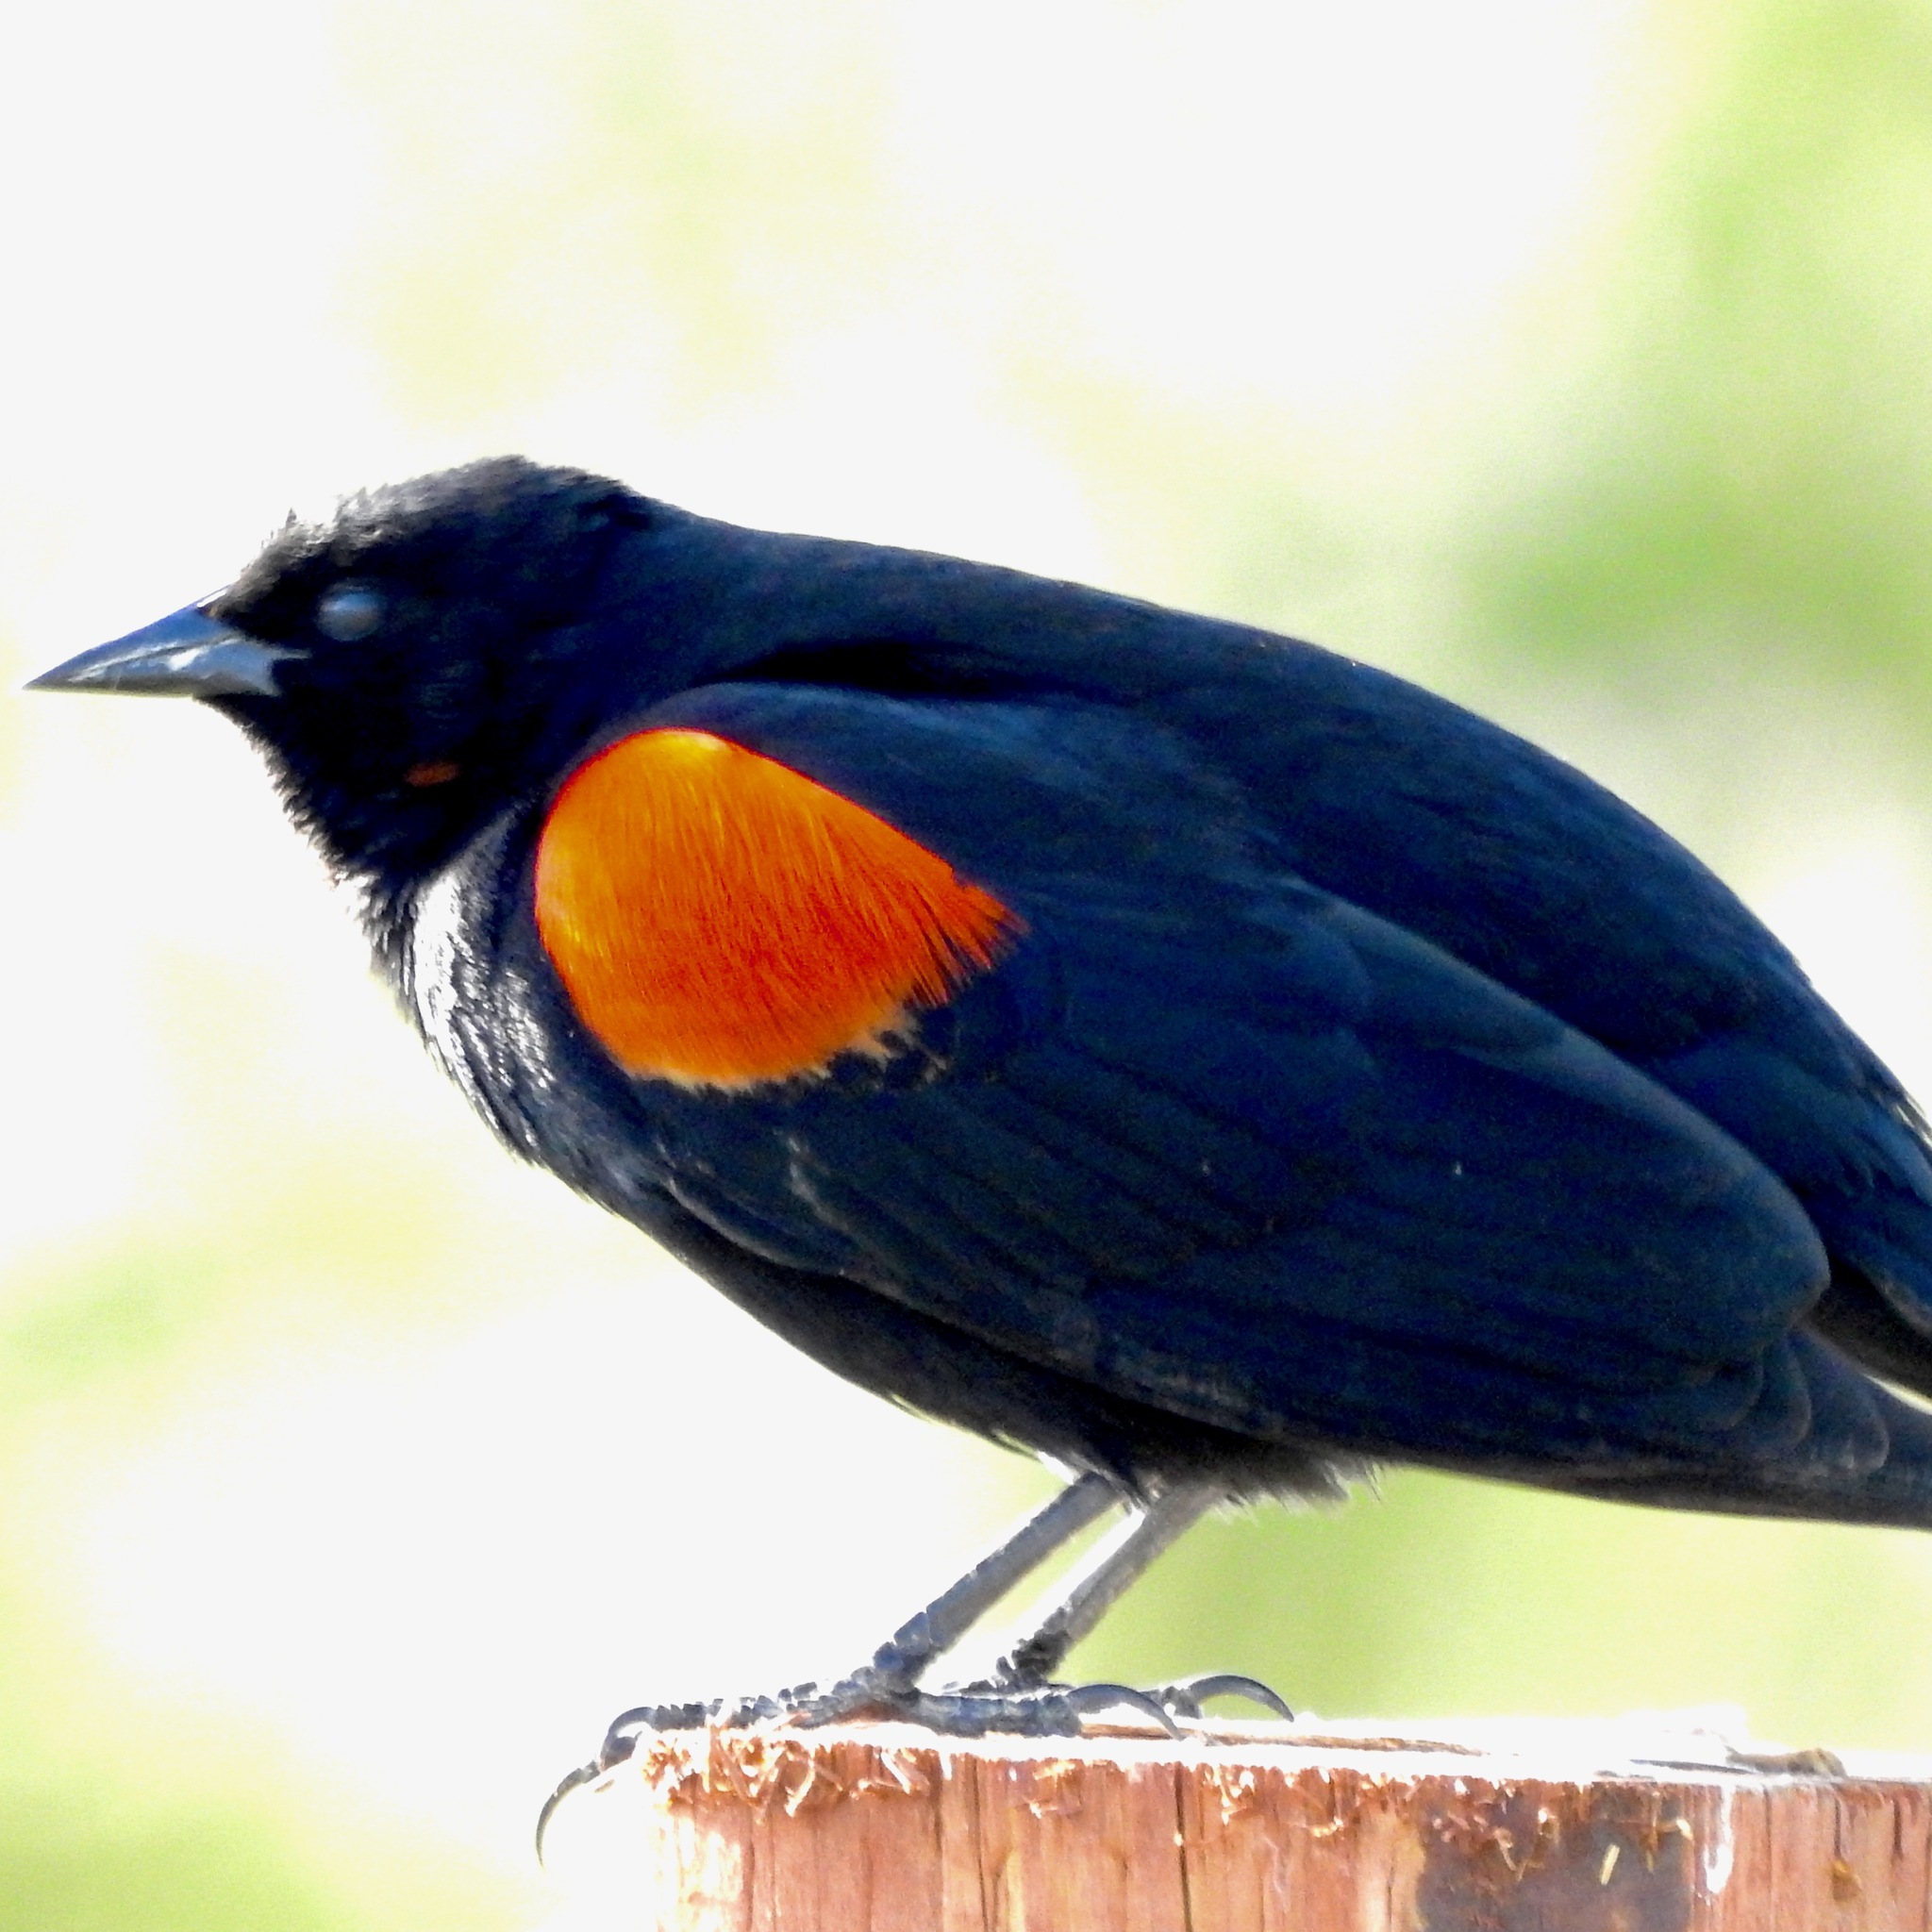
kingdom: Animalia
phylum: Chordata
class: Aves
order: Passeriformes
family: Icteridae
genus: Agelaius
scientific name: Agelaius phoeniceus
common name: Red-winged blackbird
